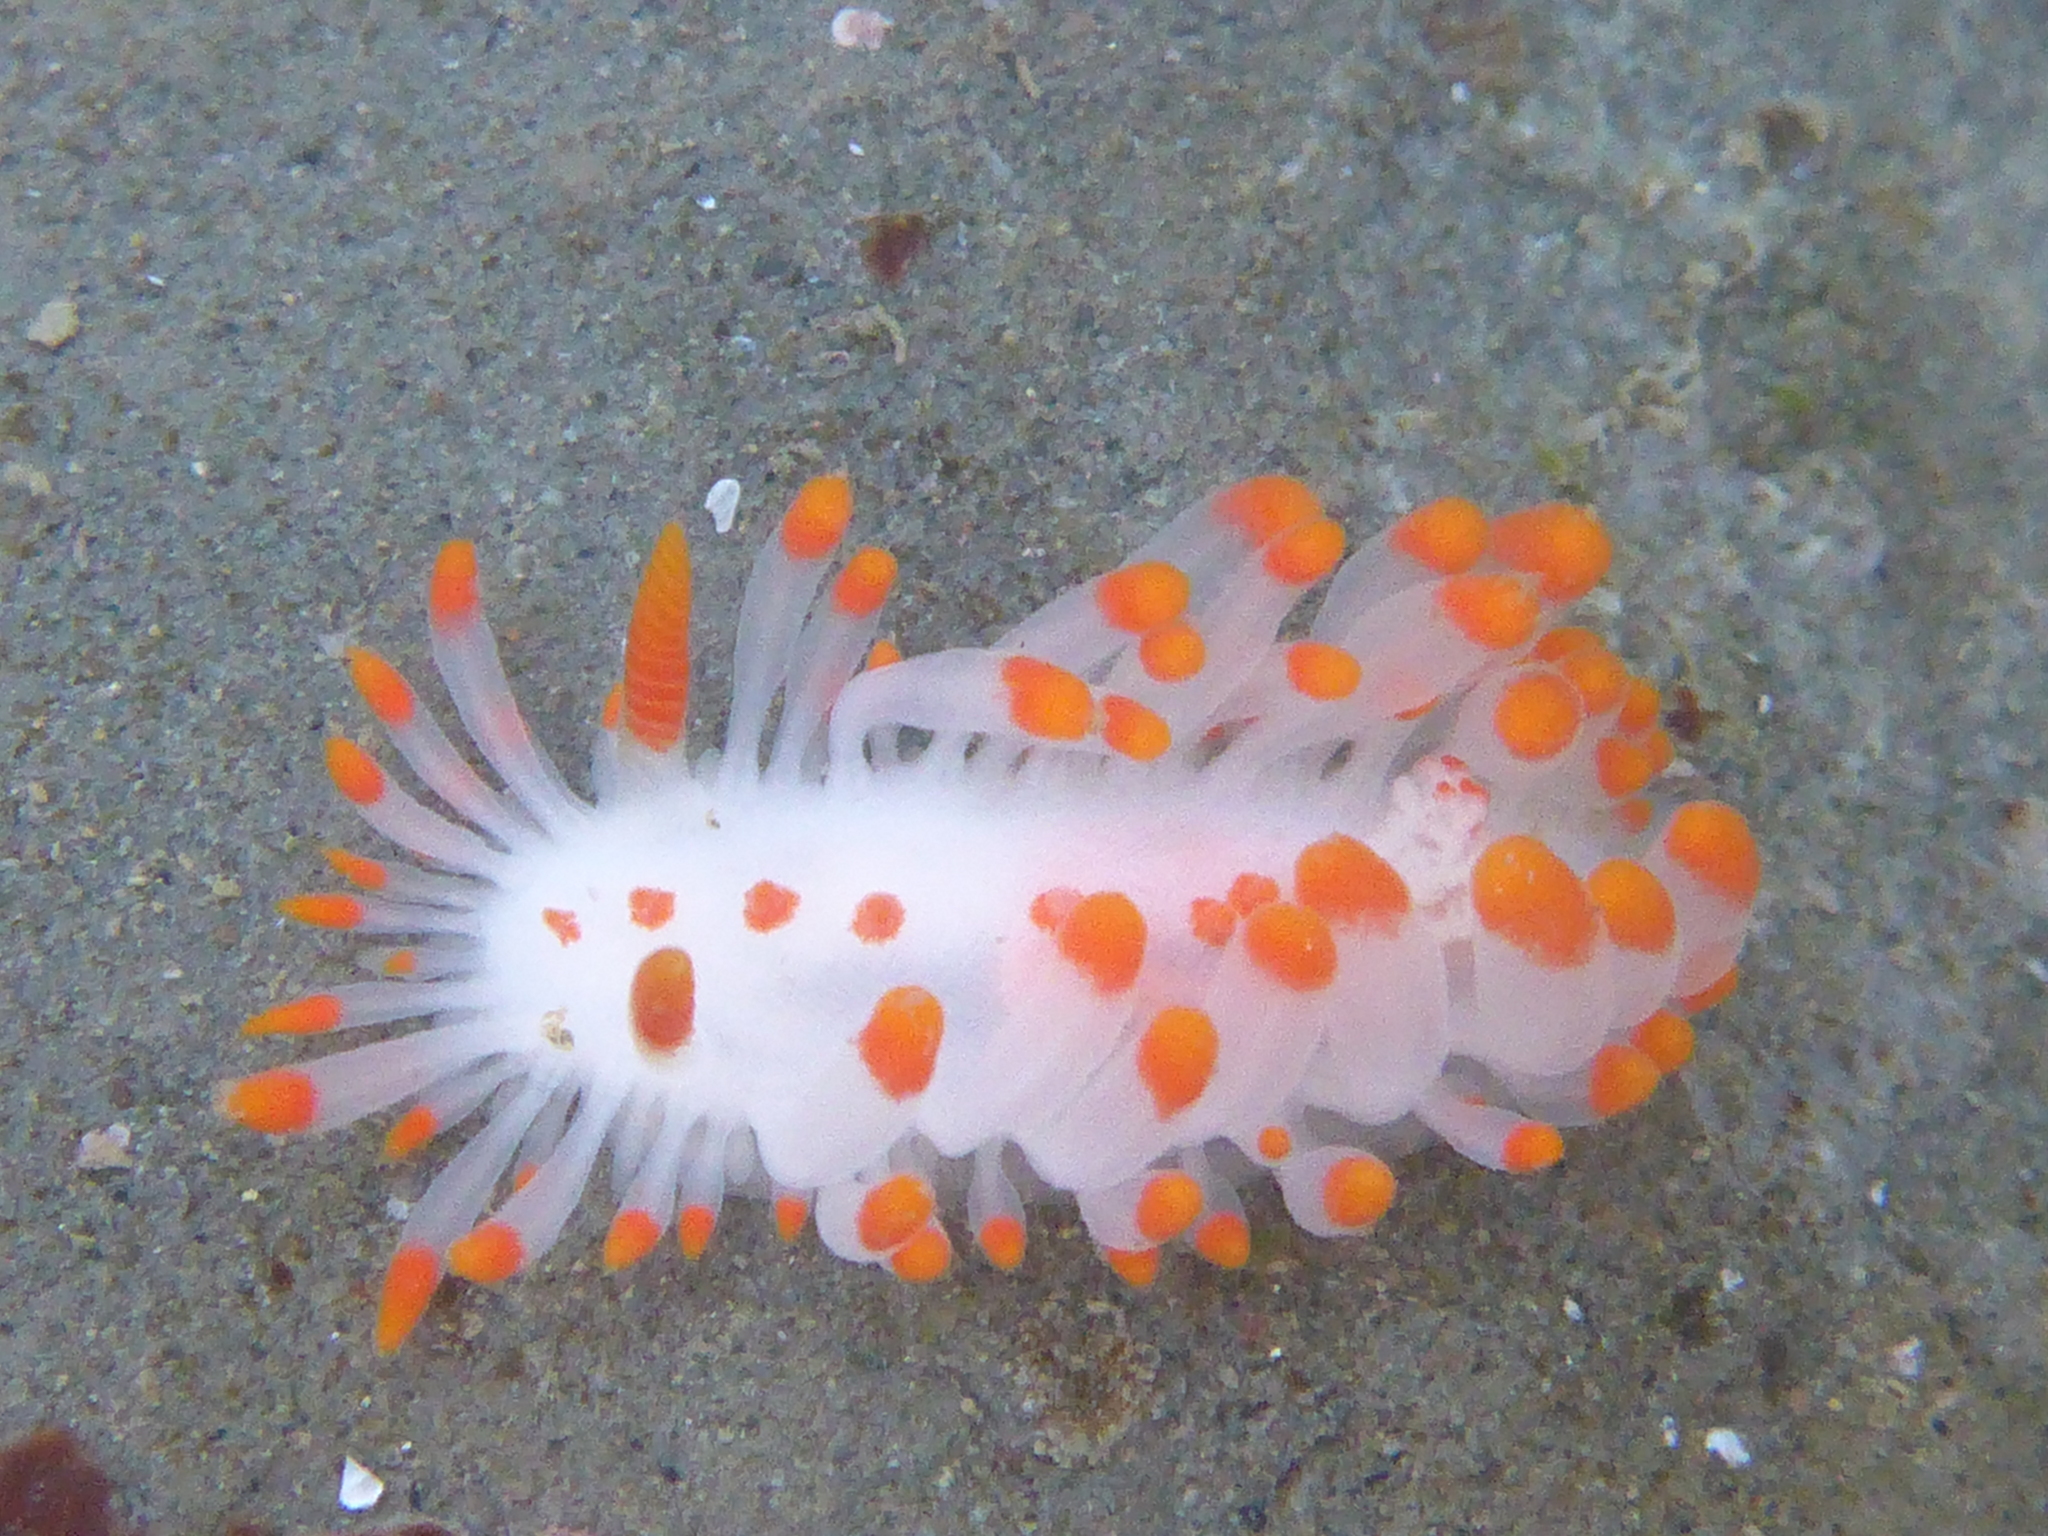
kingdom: Animalia
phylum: Mollusca
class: Gastropoda
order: Nudibranchia
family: Polyceridae
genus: Limacia
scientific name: Limacia mcdonaldi
